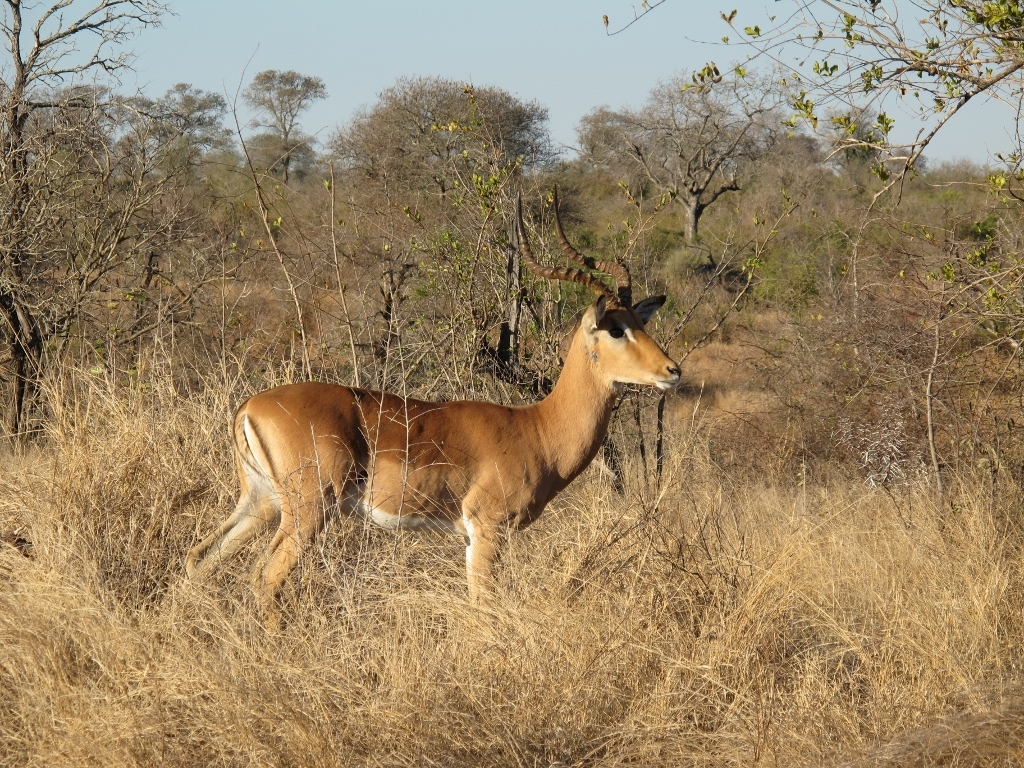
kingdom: Animalia
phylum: Chordata
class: Mammalia
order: Artiodactyla
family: Bovidae
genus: Aepyceros
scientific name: Aepyceros melampus
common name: Impala
